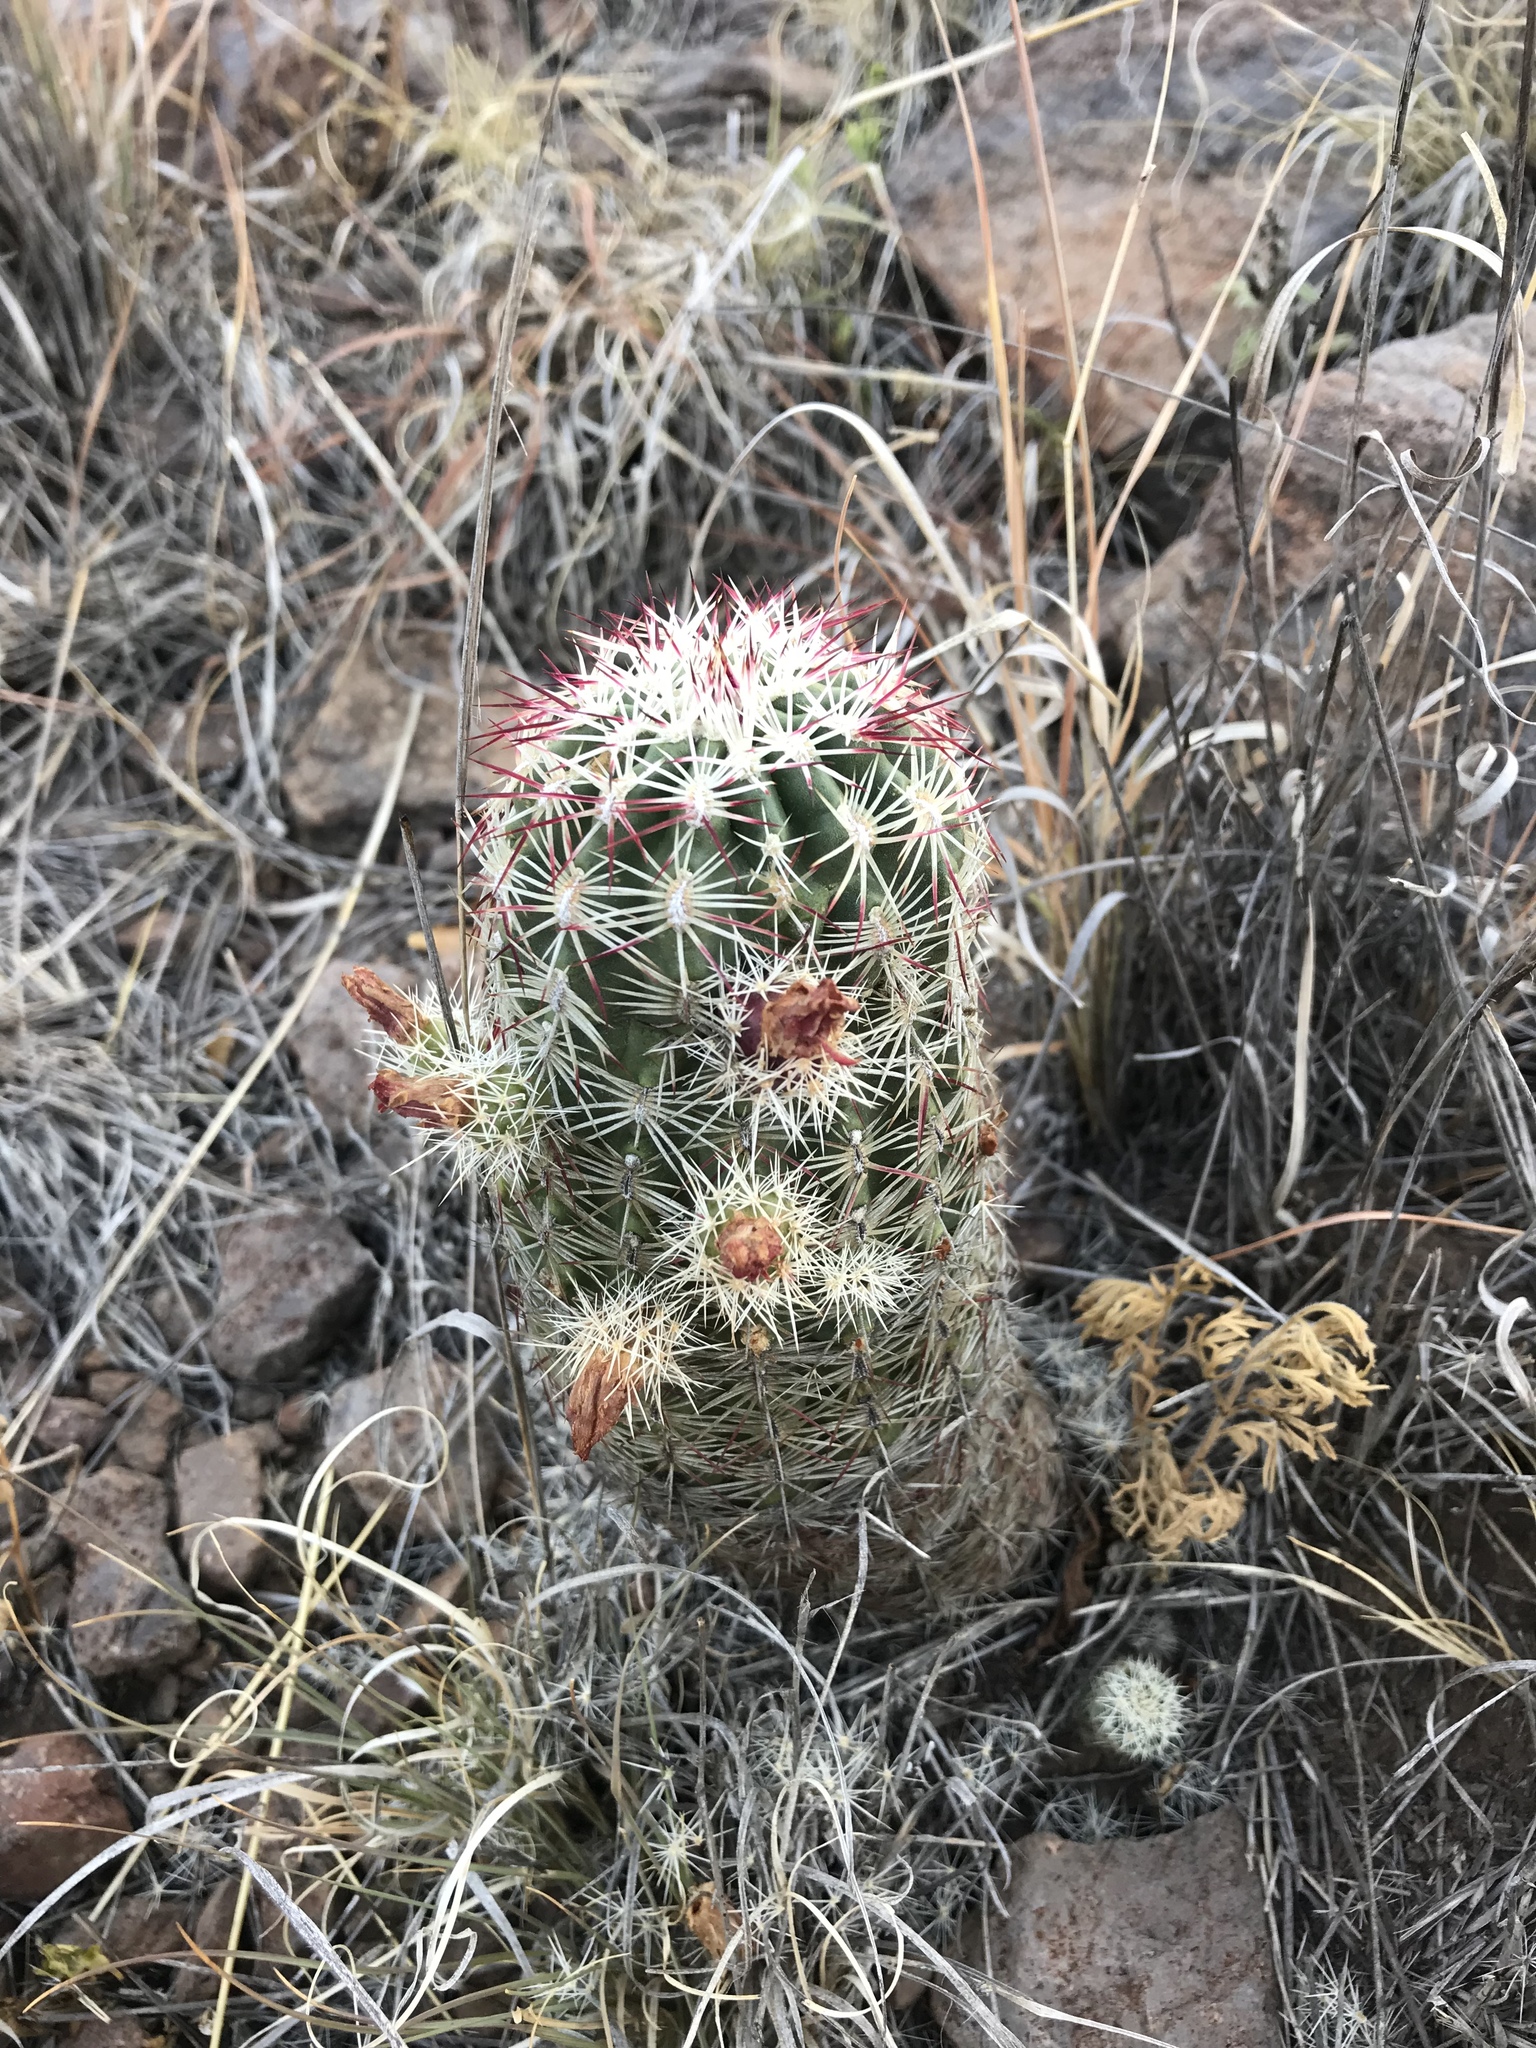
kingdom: Plantae
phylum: Tracheophyta
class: Magnoliopsida
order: Caryophyllales
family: Cactaceae
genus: Echinocereus
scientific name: Echinocereus viridiflorus
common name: Nylon hedgehog cactus
